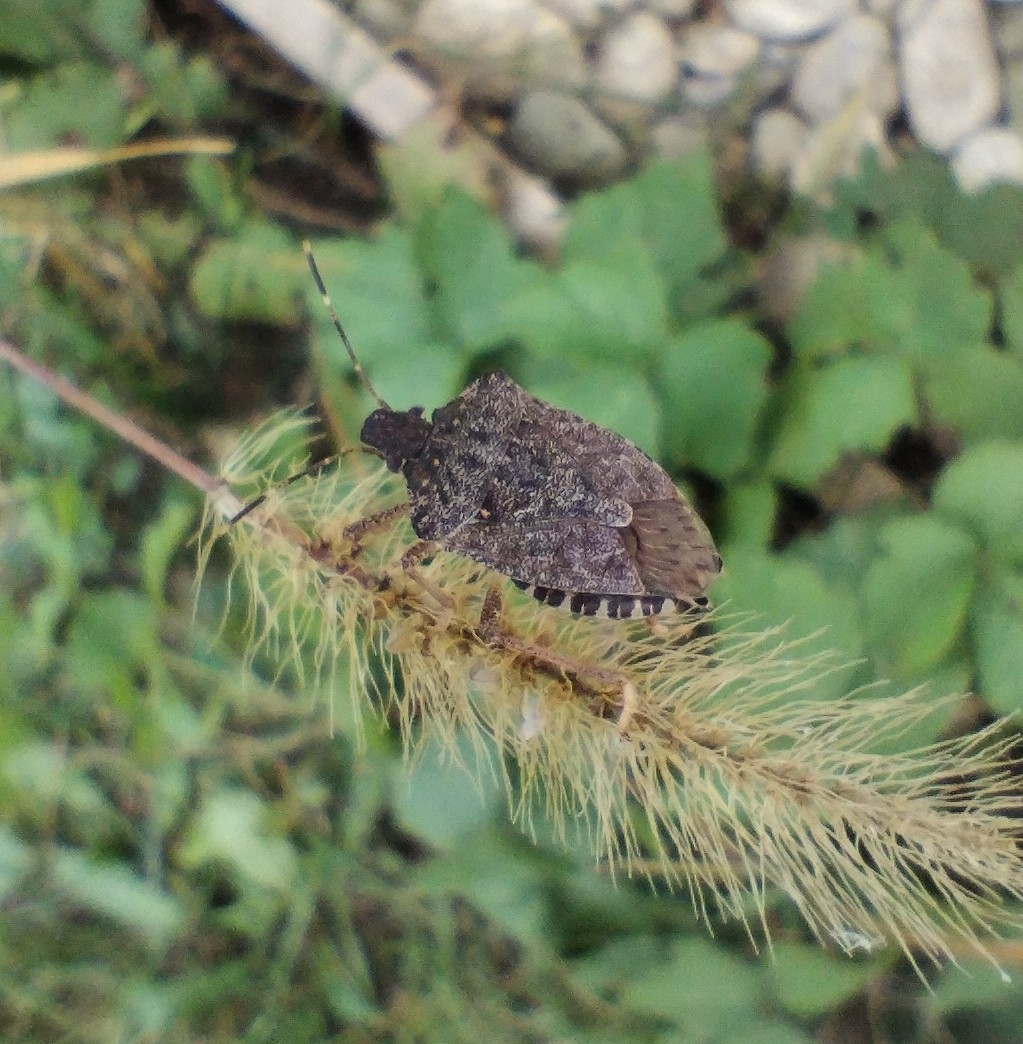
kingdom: Animalia
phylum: Arthropoda
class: Insecta
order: Hemiptera
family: Pentatomidae
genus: Halyomorpha
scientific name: Halyomorpha halys
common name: Brown marmorated stink bug
